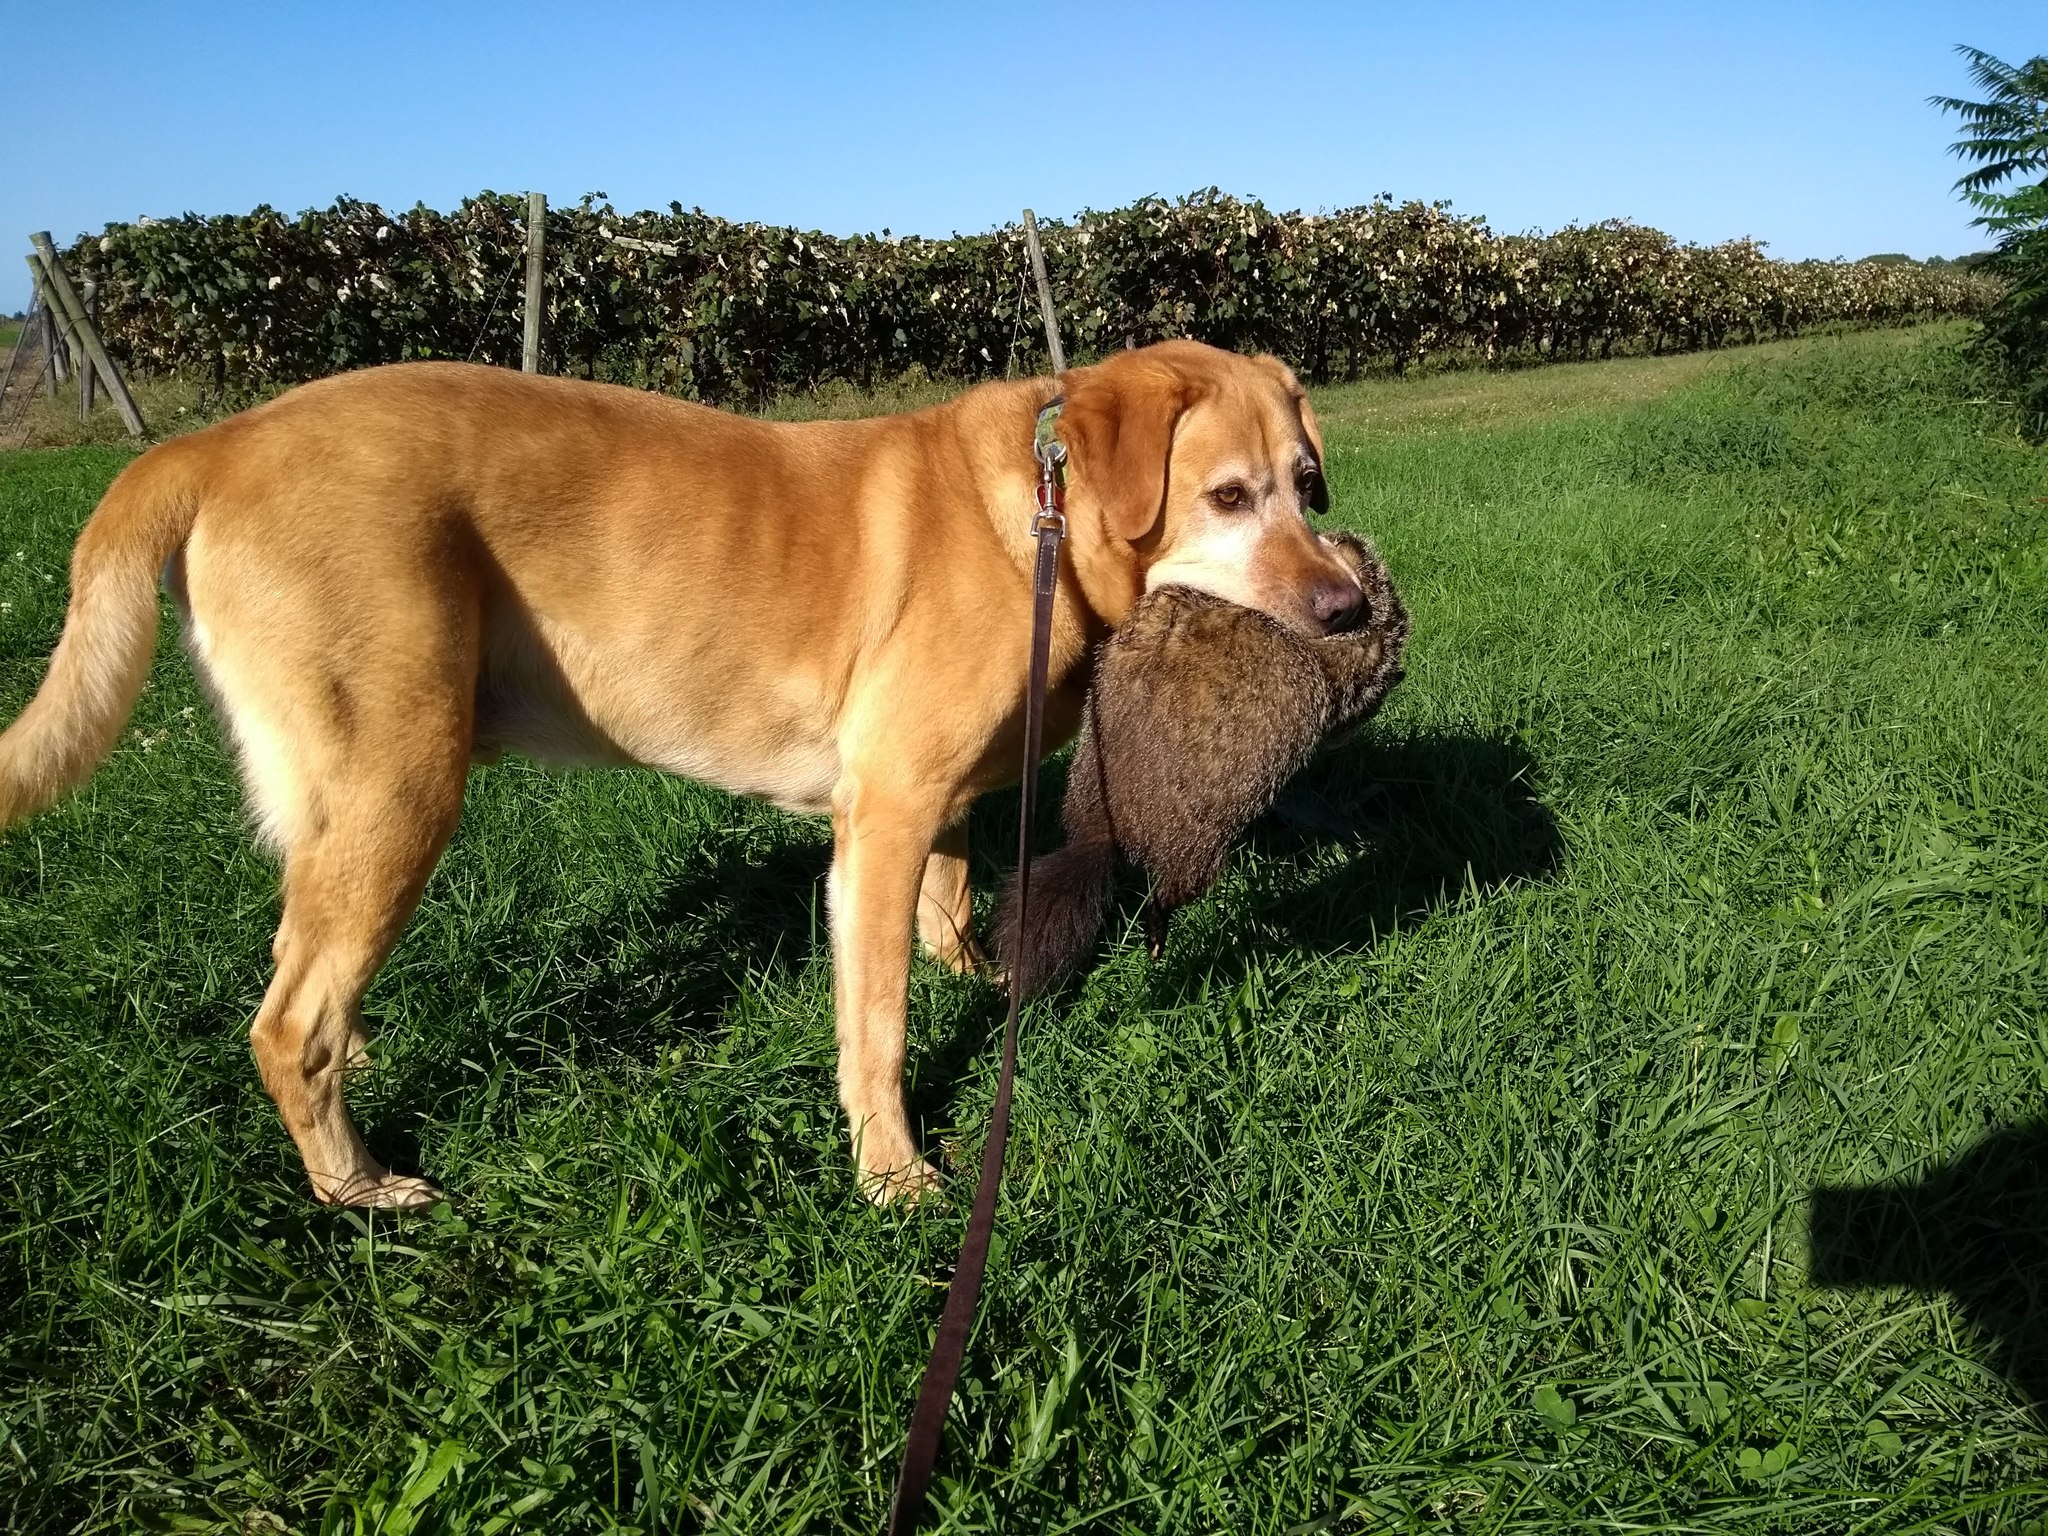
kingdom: Animalia
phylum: Chordata
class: Mammalia
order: Rodentia
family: Sciuridae
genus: Marmota
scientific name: Marmota monax
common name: Groundhog
